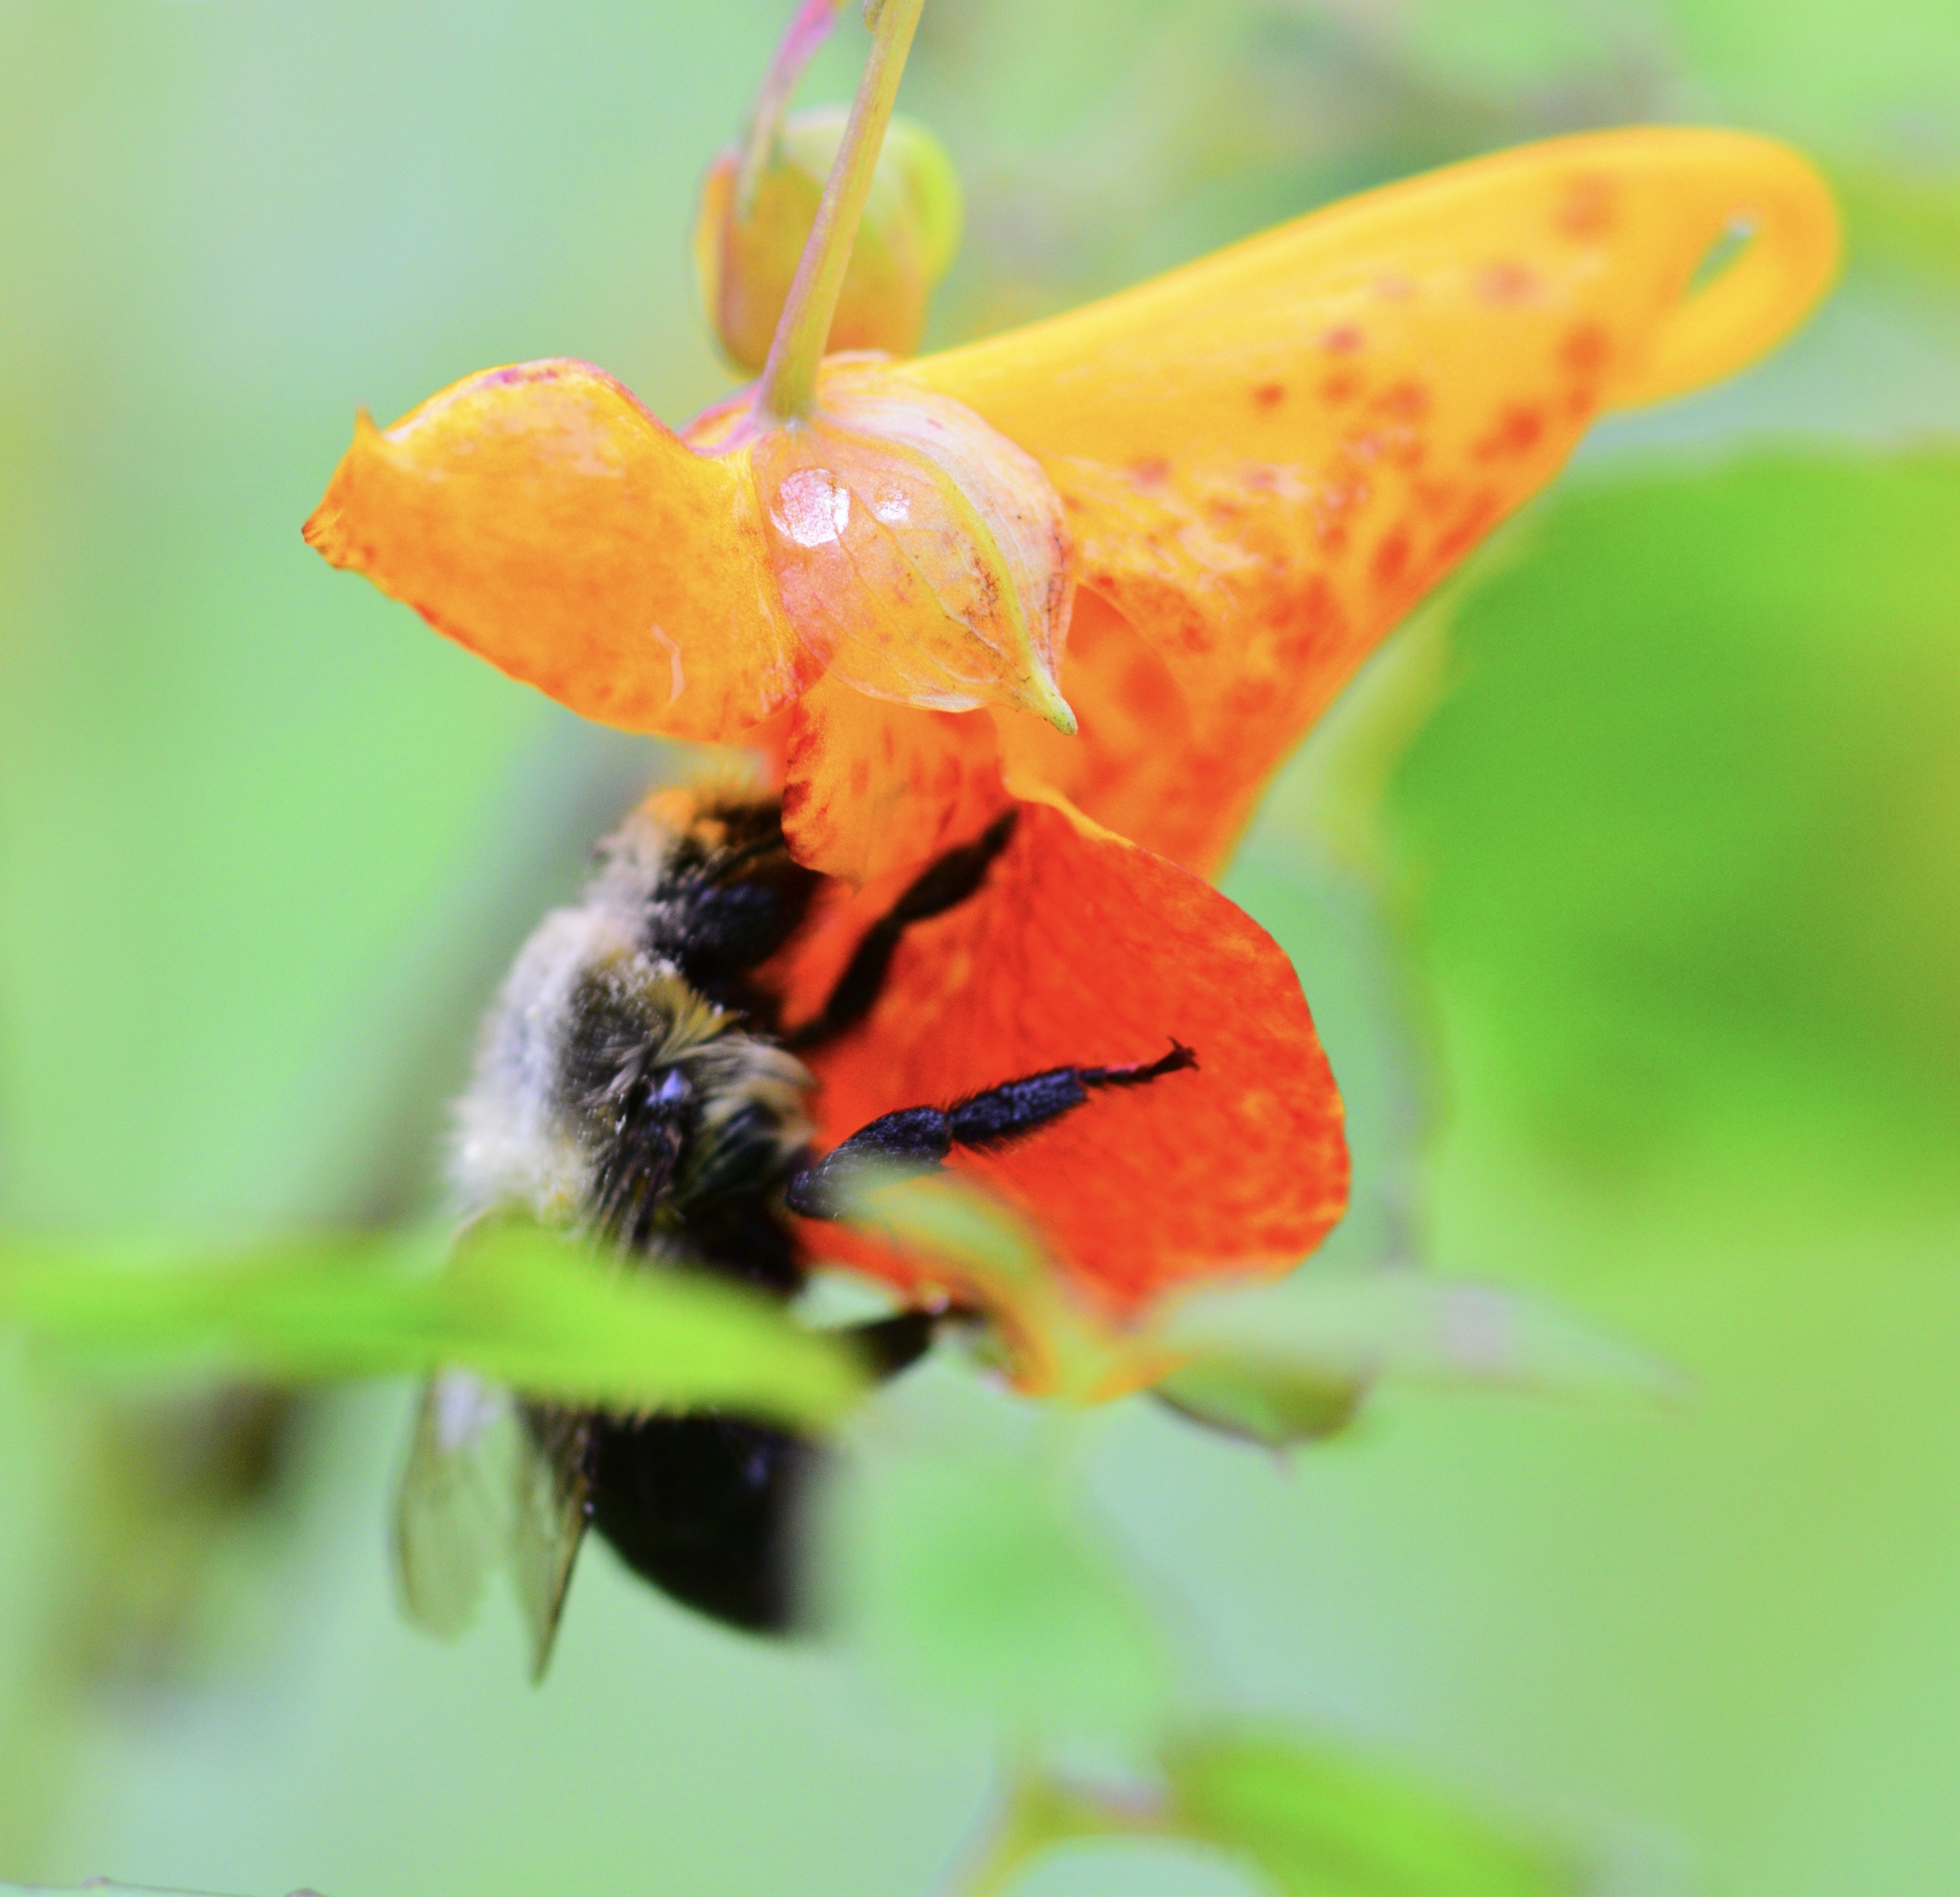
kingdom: Animalia
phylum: Arthropoda
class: Insecta
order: Hymenoptera
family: Apidae
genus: Bombus
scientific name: Bombus impatiens
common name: Common eastern bumble bee
